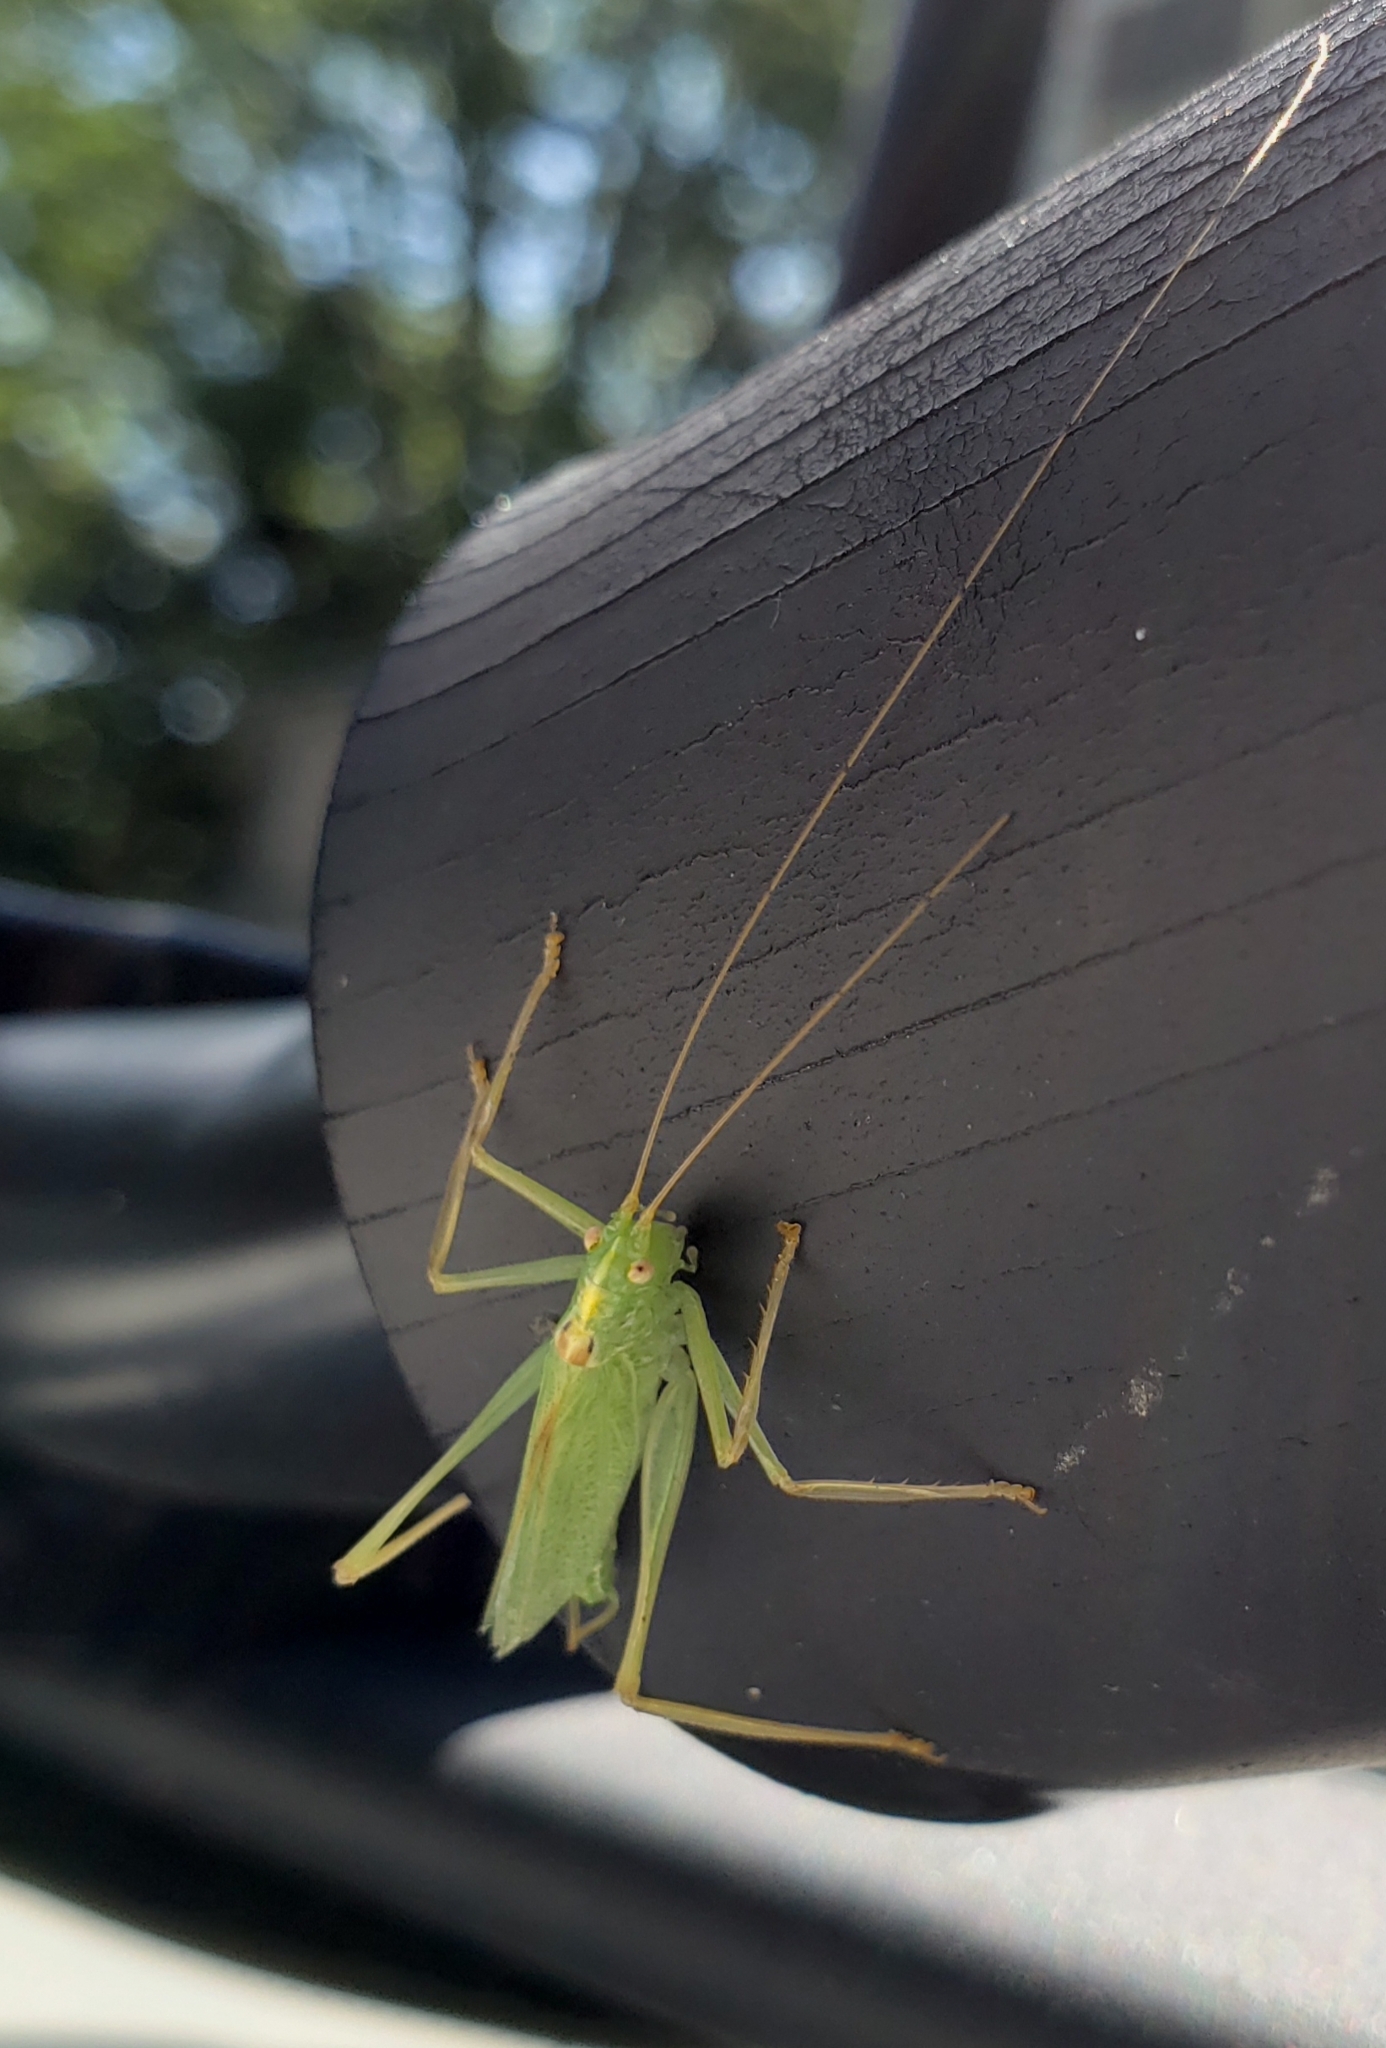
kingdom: Animalia
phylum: Arthropoda
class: Insecta
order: Orthoptera
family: Tettigoniidae
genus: Meconema
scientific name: Meconema thalassinum
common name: Oak bush-cricket
